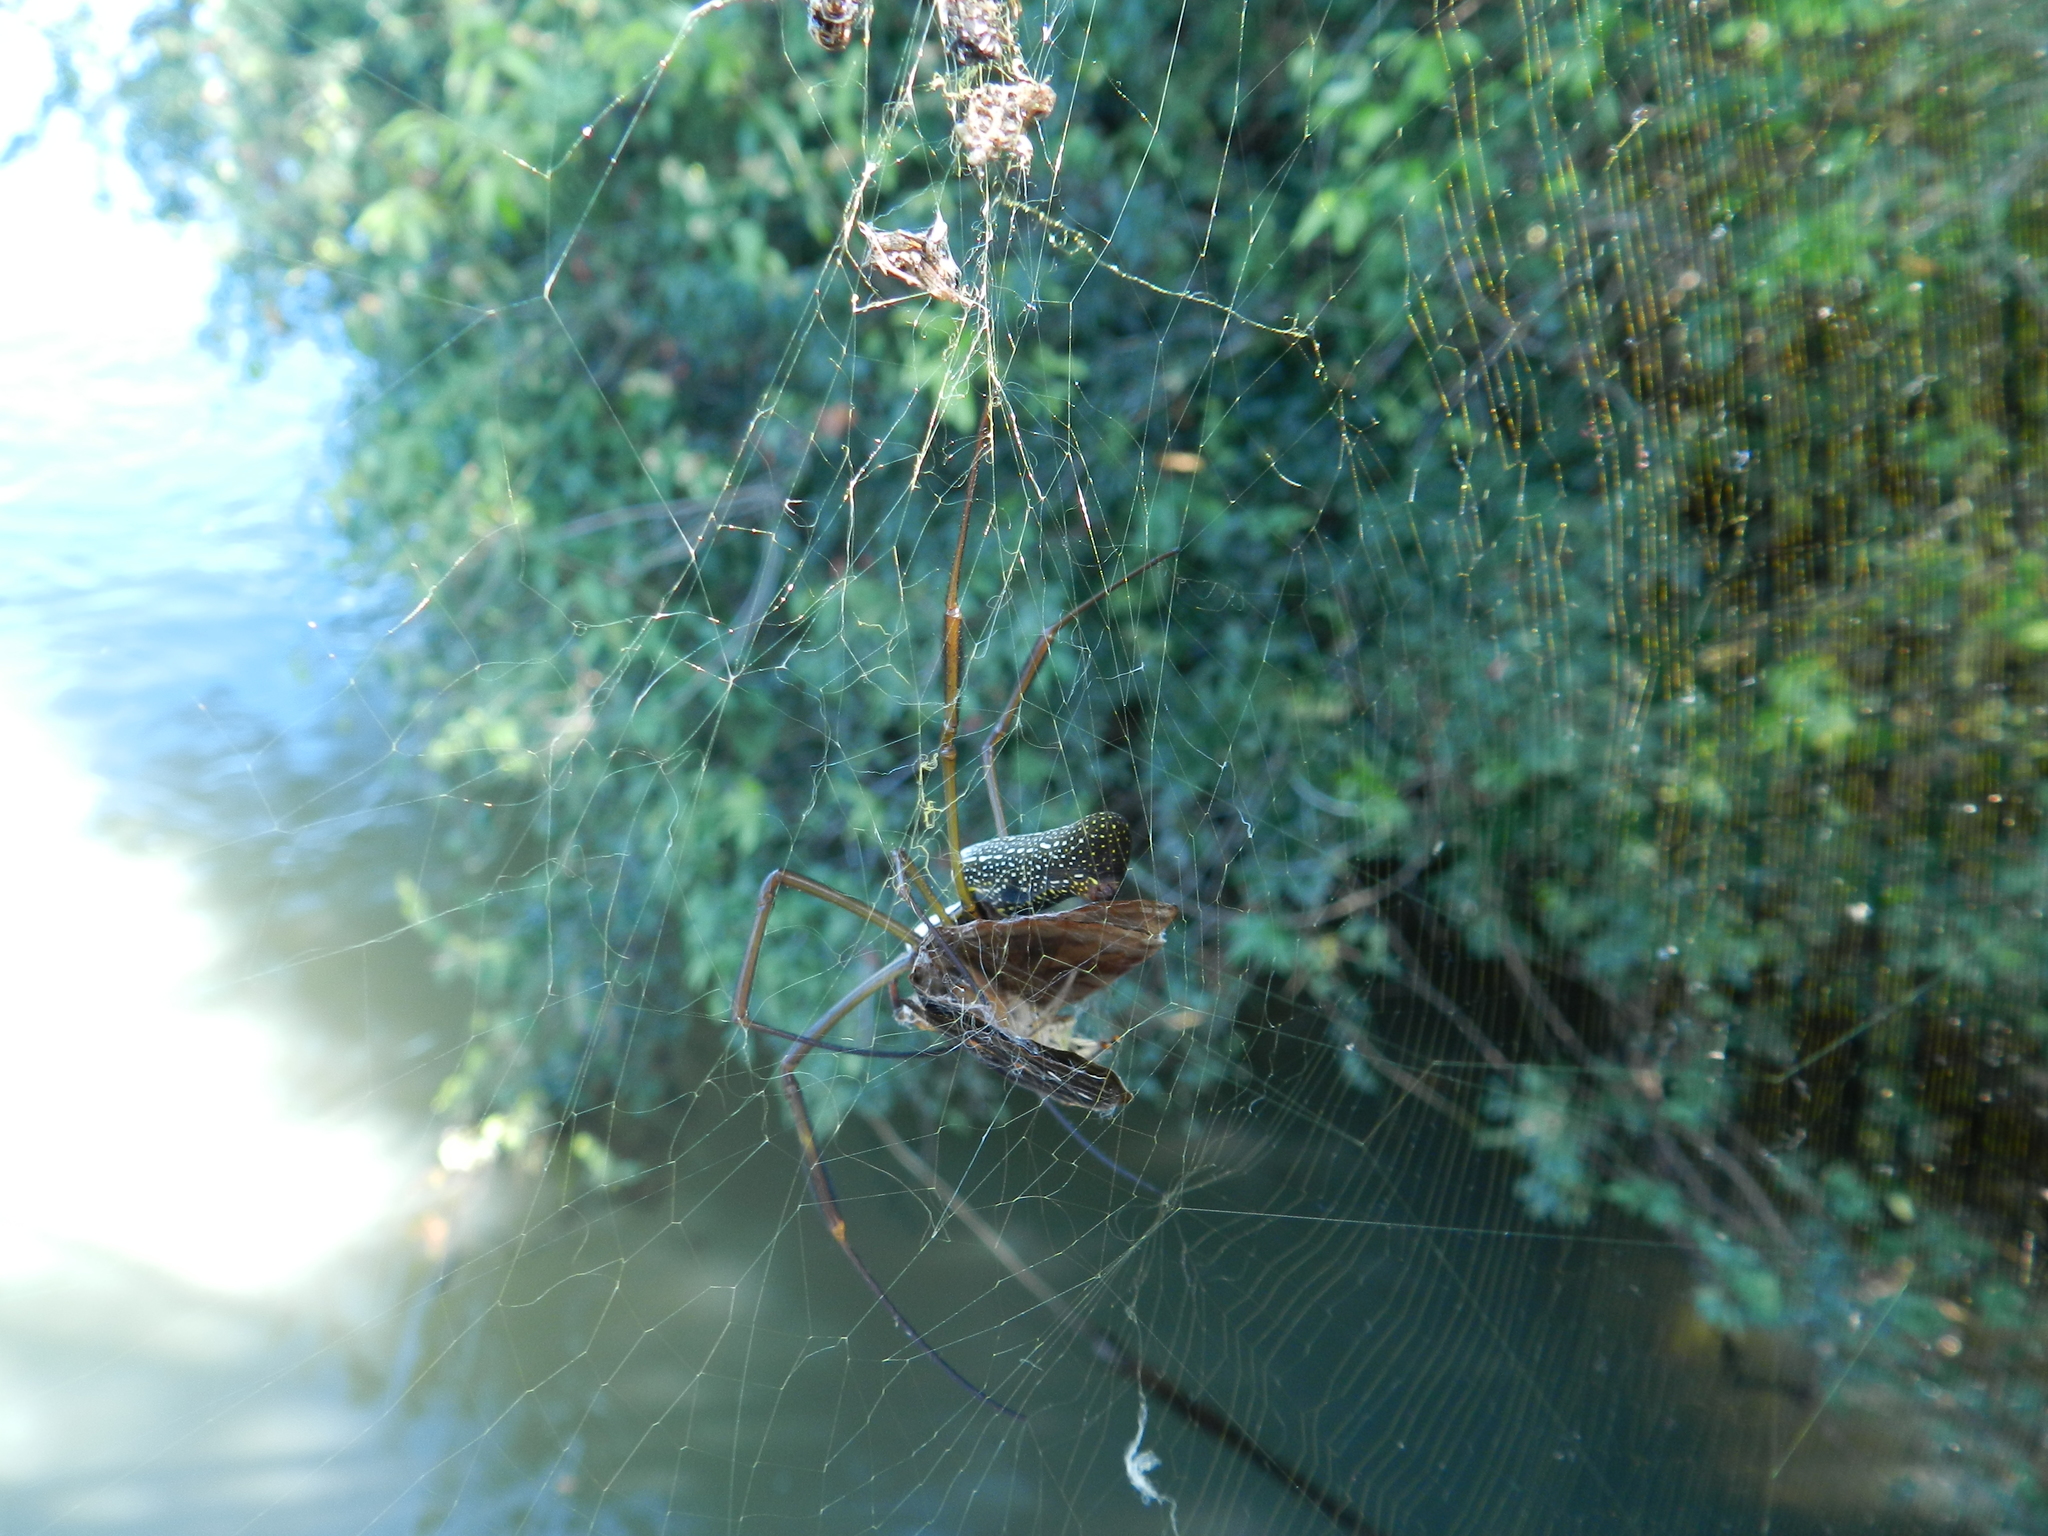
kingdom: Animalia
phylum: Arthropoda
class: Arachnida
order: Araneae
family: Araneidae
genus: Trichonephila
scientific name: Trichonephila clavipes
